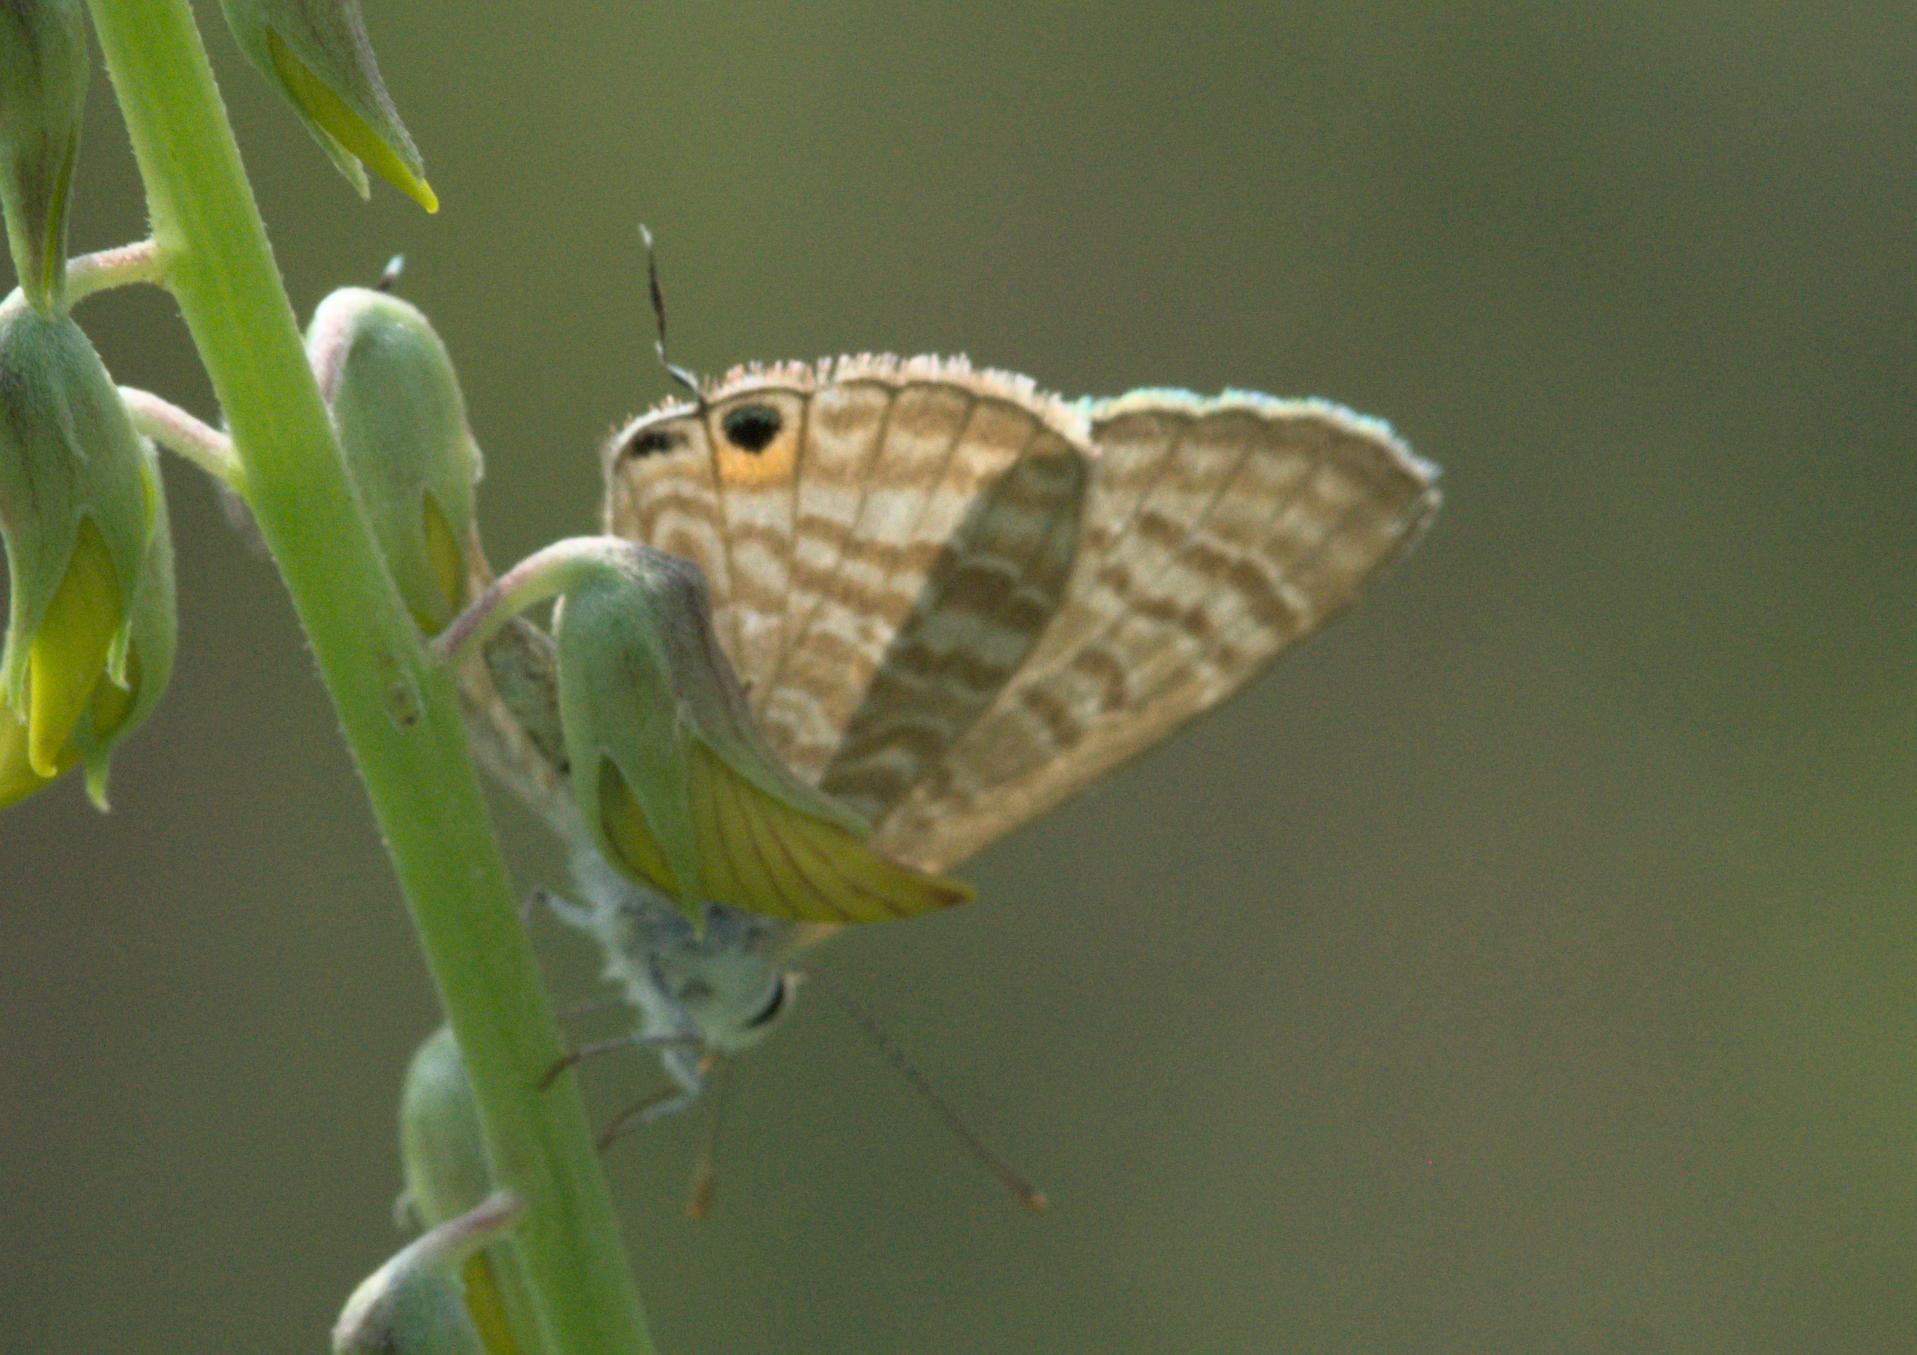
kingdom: Animalia
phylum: Arthropoda
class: Insecta
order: Lepidoptera
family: Lycaenidae
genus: Lampides
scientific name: Lampides boeticus
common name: Long-tailed blue
